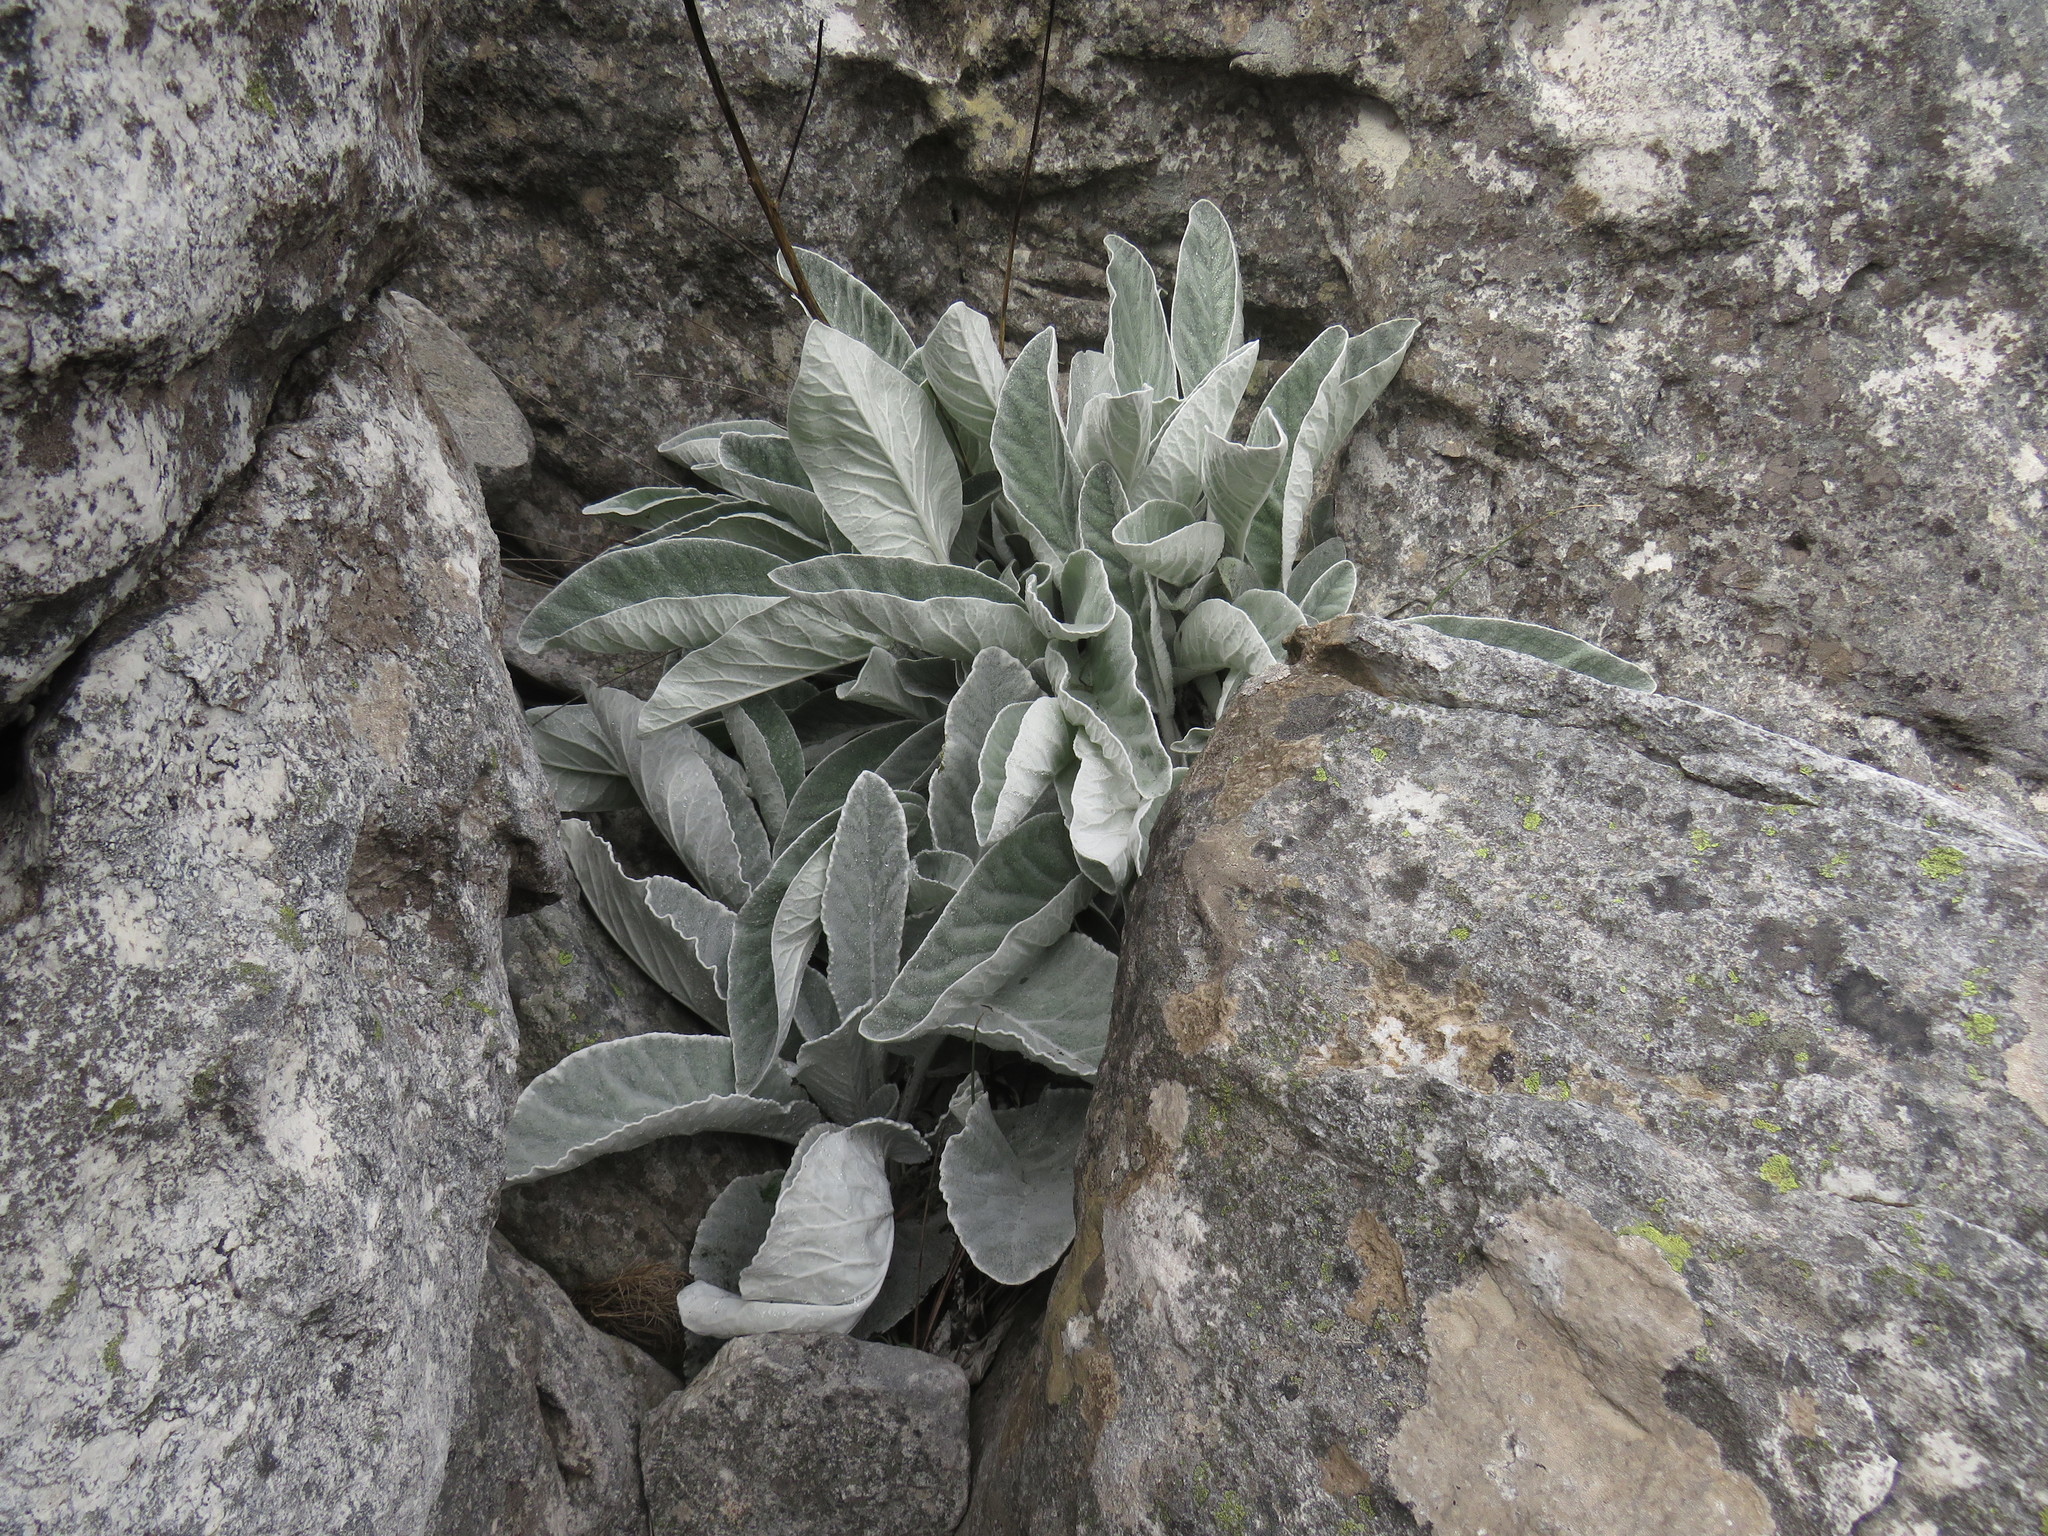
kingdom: Plantae
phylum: Tracheophyta
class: Magnoliopsida
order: Apiales
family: Apiaceae
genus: Hermas
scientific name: Hermas gigantea
